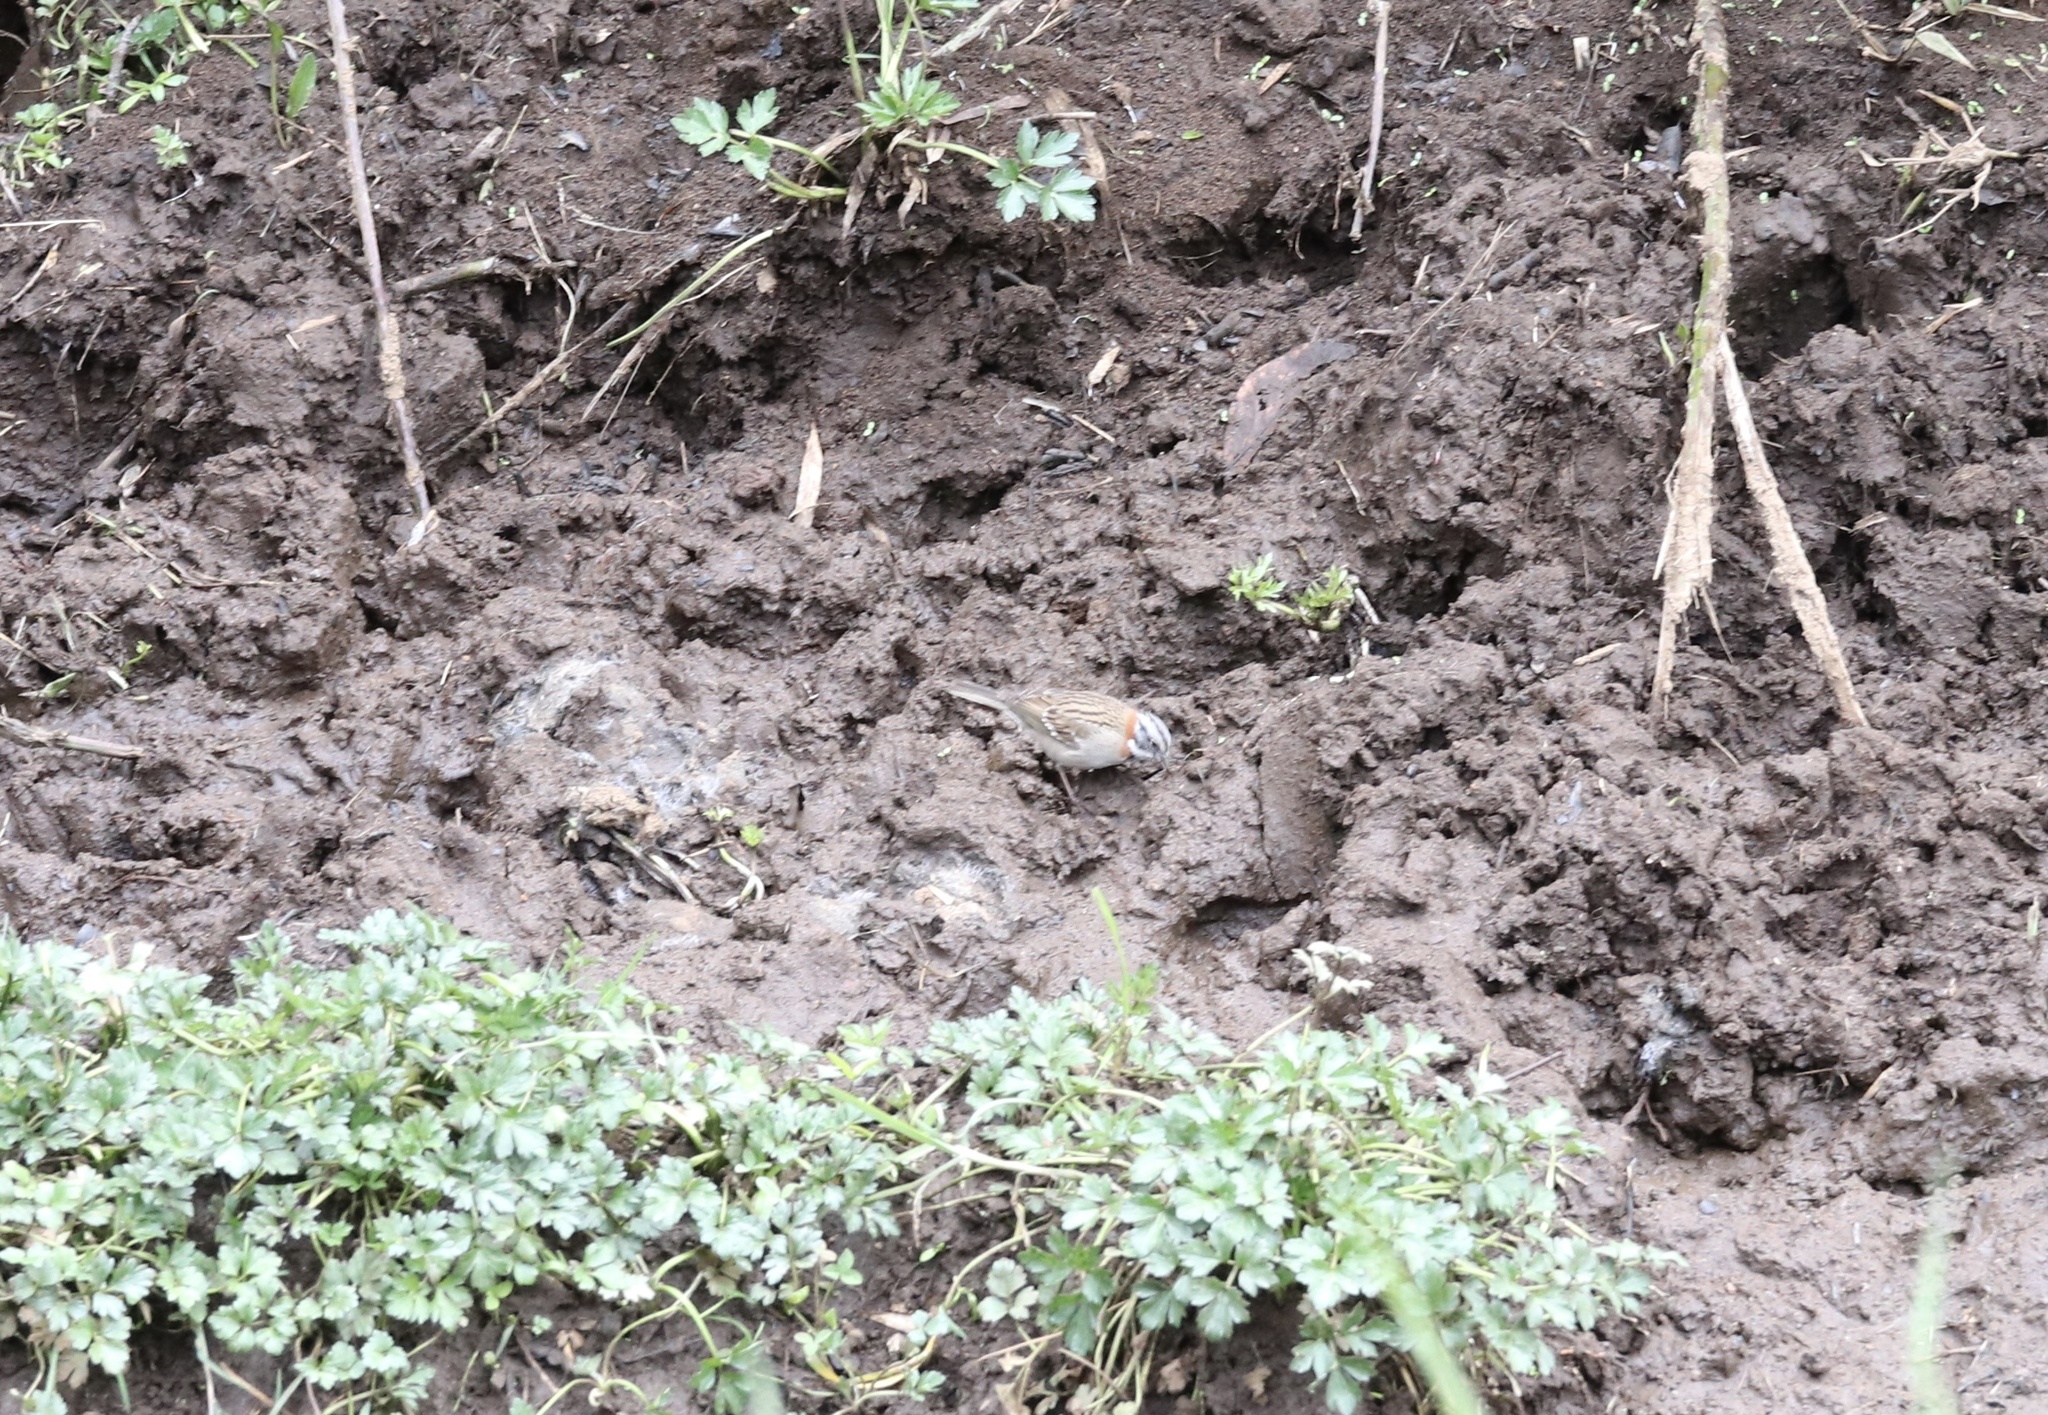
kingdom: Animalia
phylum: Chordata
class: Aves
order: Passeriformes
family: Passerellidae
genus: Zonotrichia
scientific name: Zonotrichia capensis
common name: Rufous-collared sparrow
